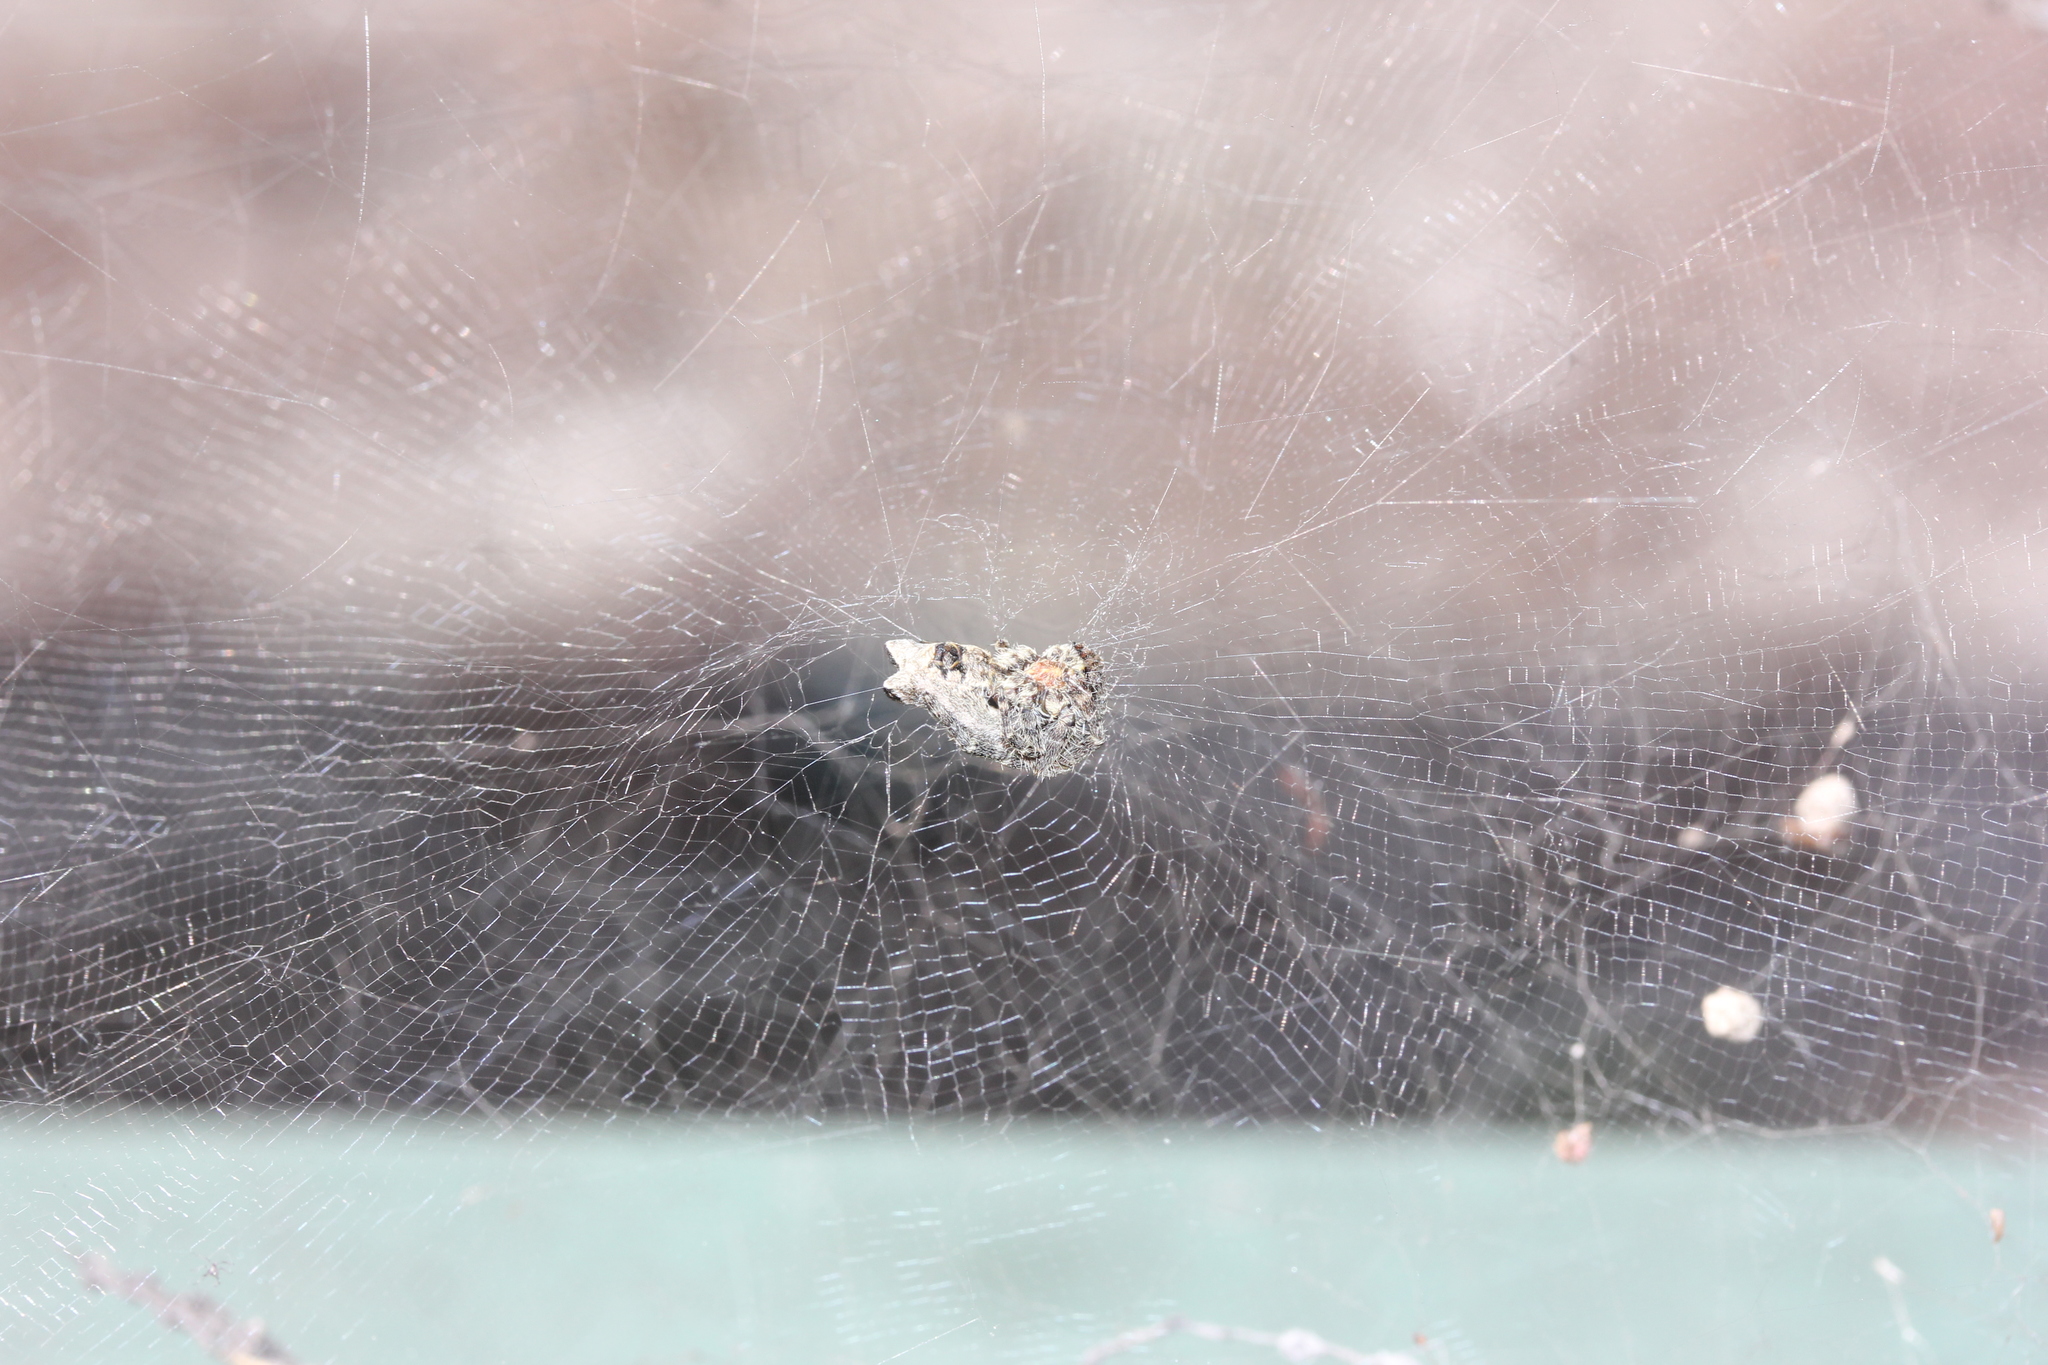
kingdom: Animalia
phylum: Arthropoda
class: Arachnida
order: Araneae
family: Araneidae
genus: Cyrtophora
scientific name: Cyrtophora citricola
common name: Orb weavers
